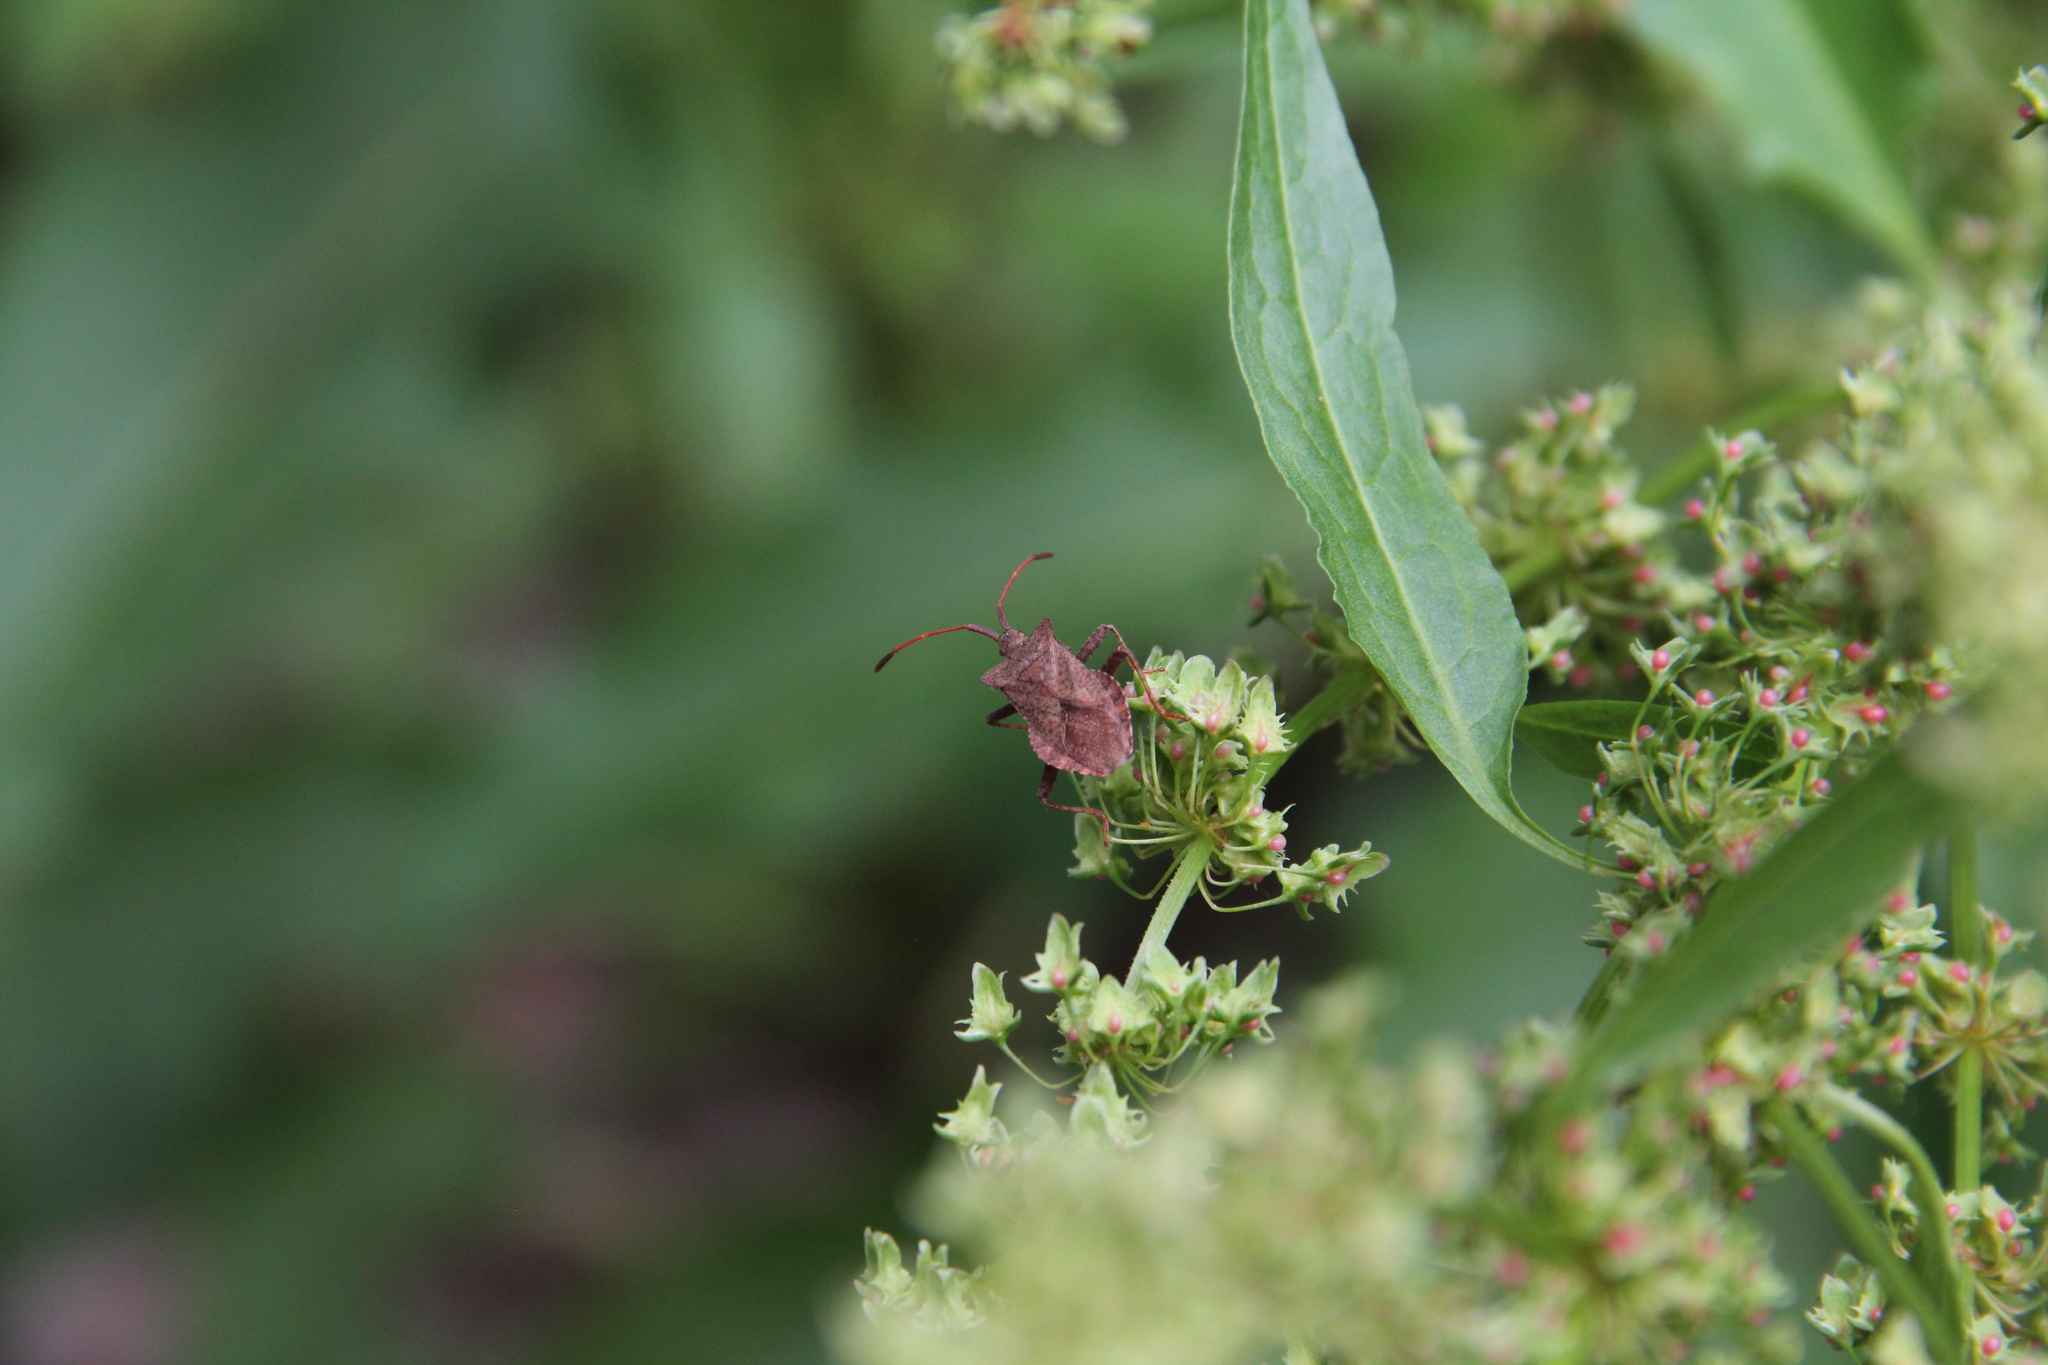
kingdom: Animalia
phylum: Arthropoda
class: Insecta
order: Hemiptera
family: Coreidae
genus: Coreus
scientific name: Coreus marginatus
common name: Dock bug
